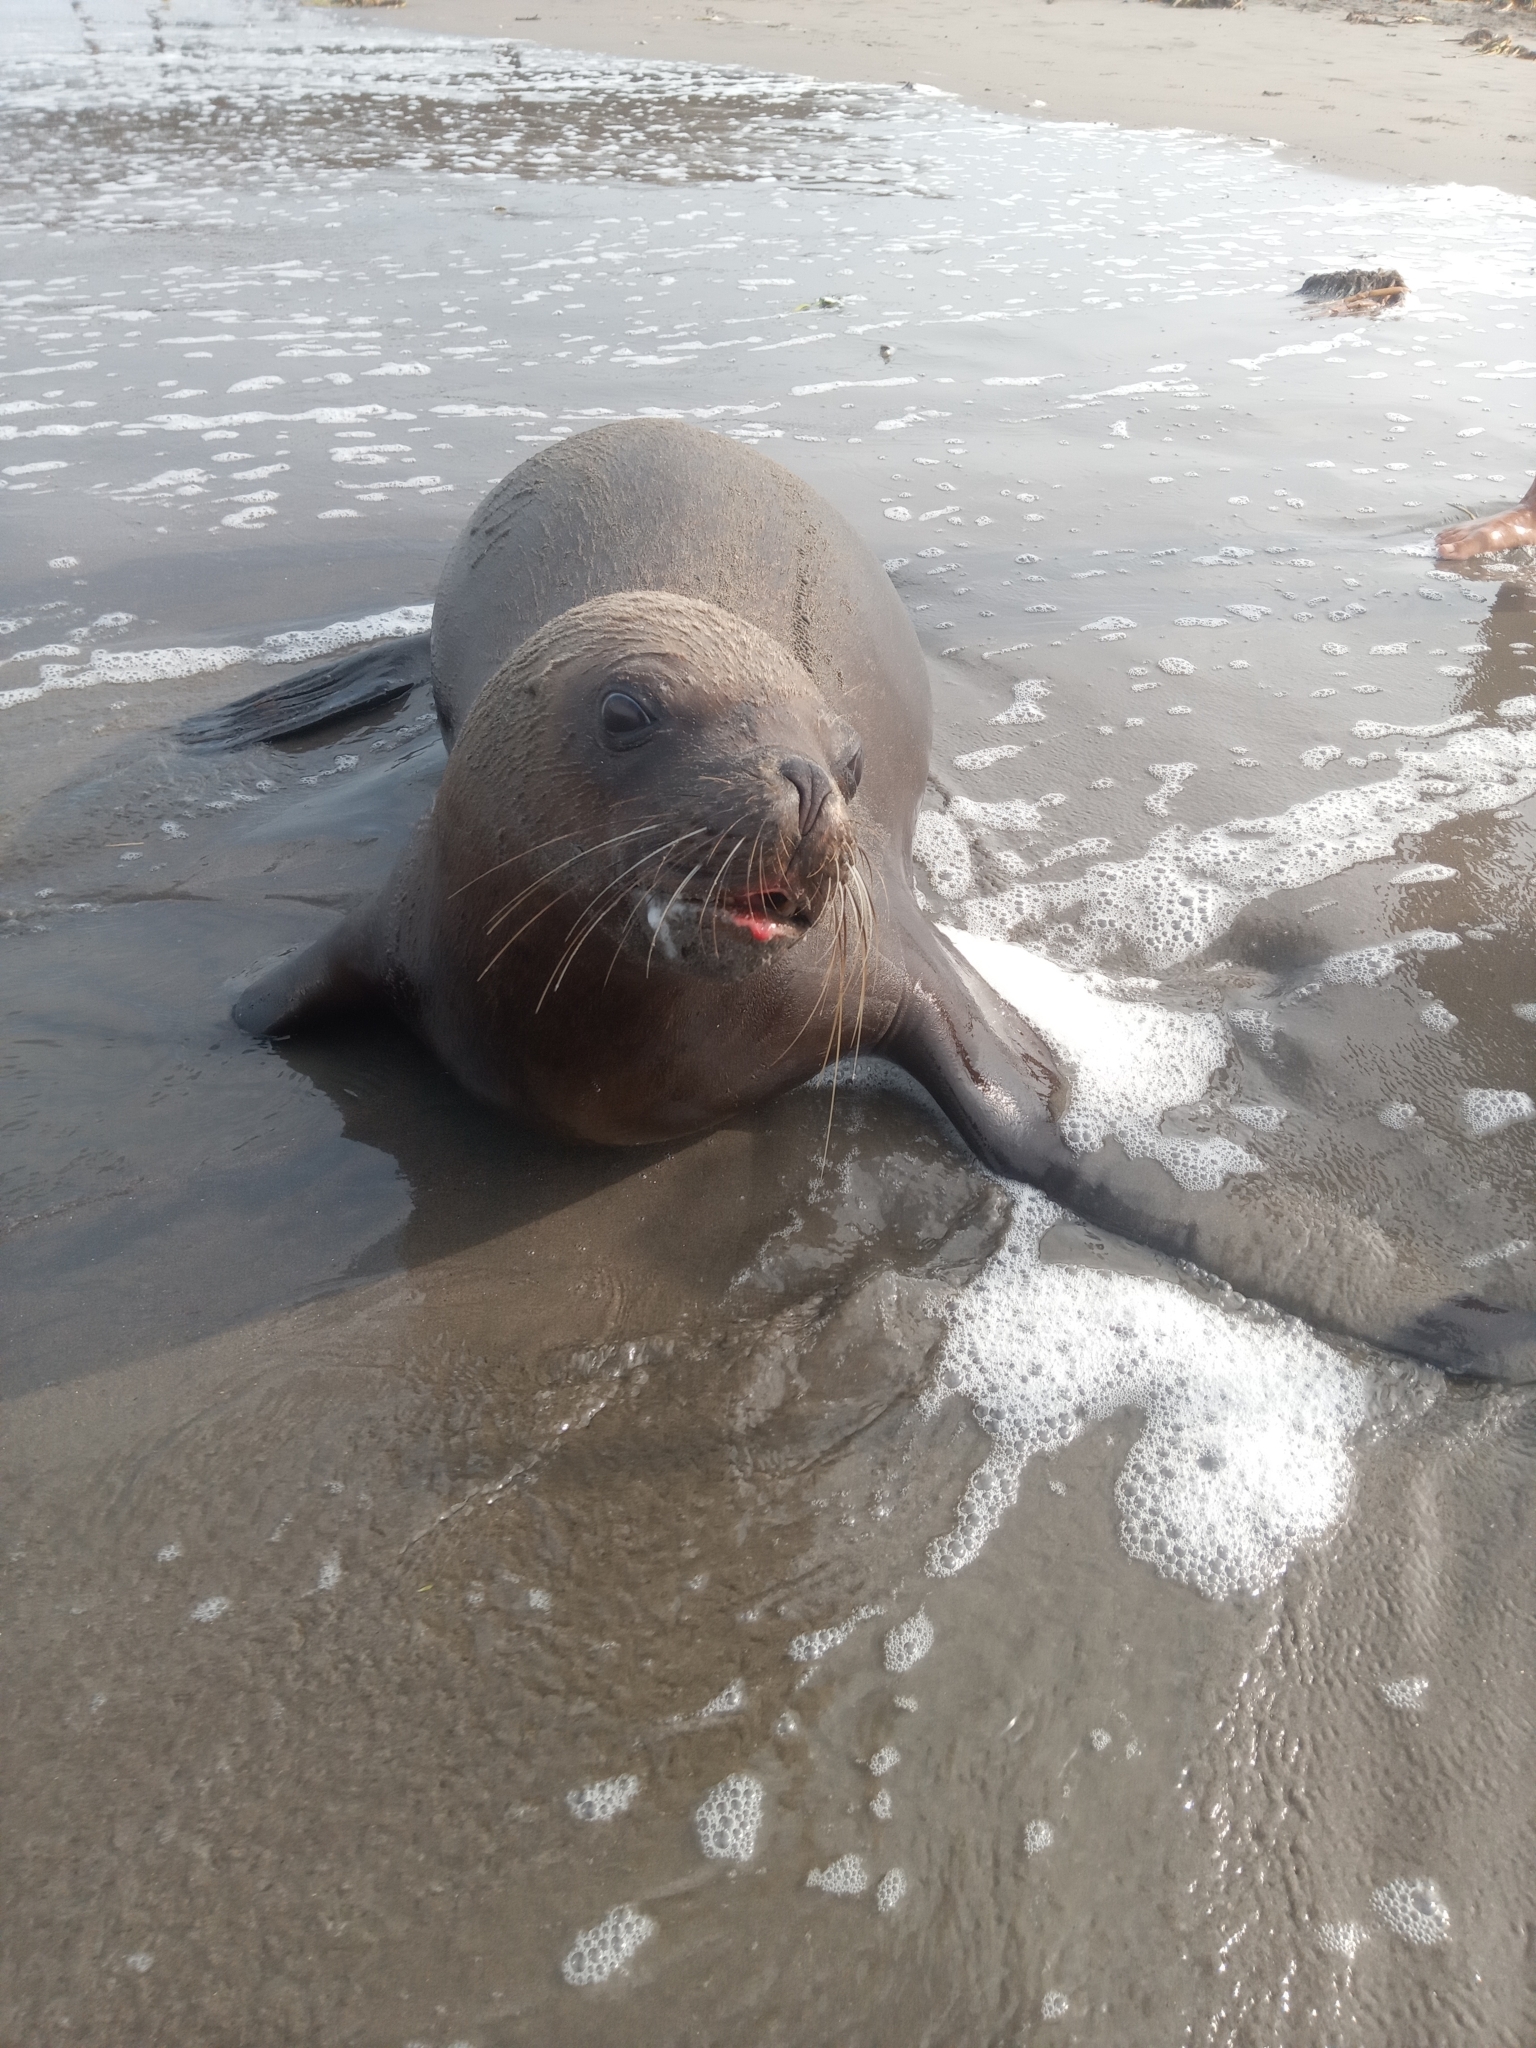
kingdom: Animalia
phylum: Chordata
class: Mammalia
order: Carnivora
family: Otariidae
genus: Otaria
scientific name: Otaria byronia
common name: South american sea lion
